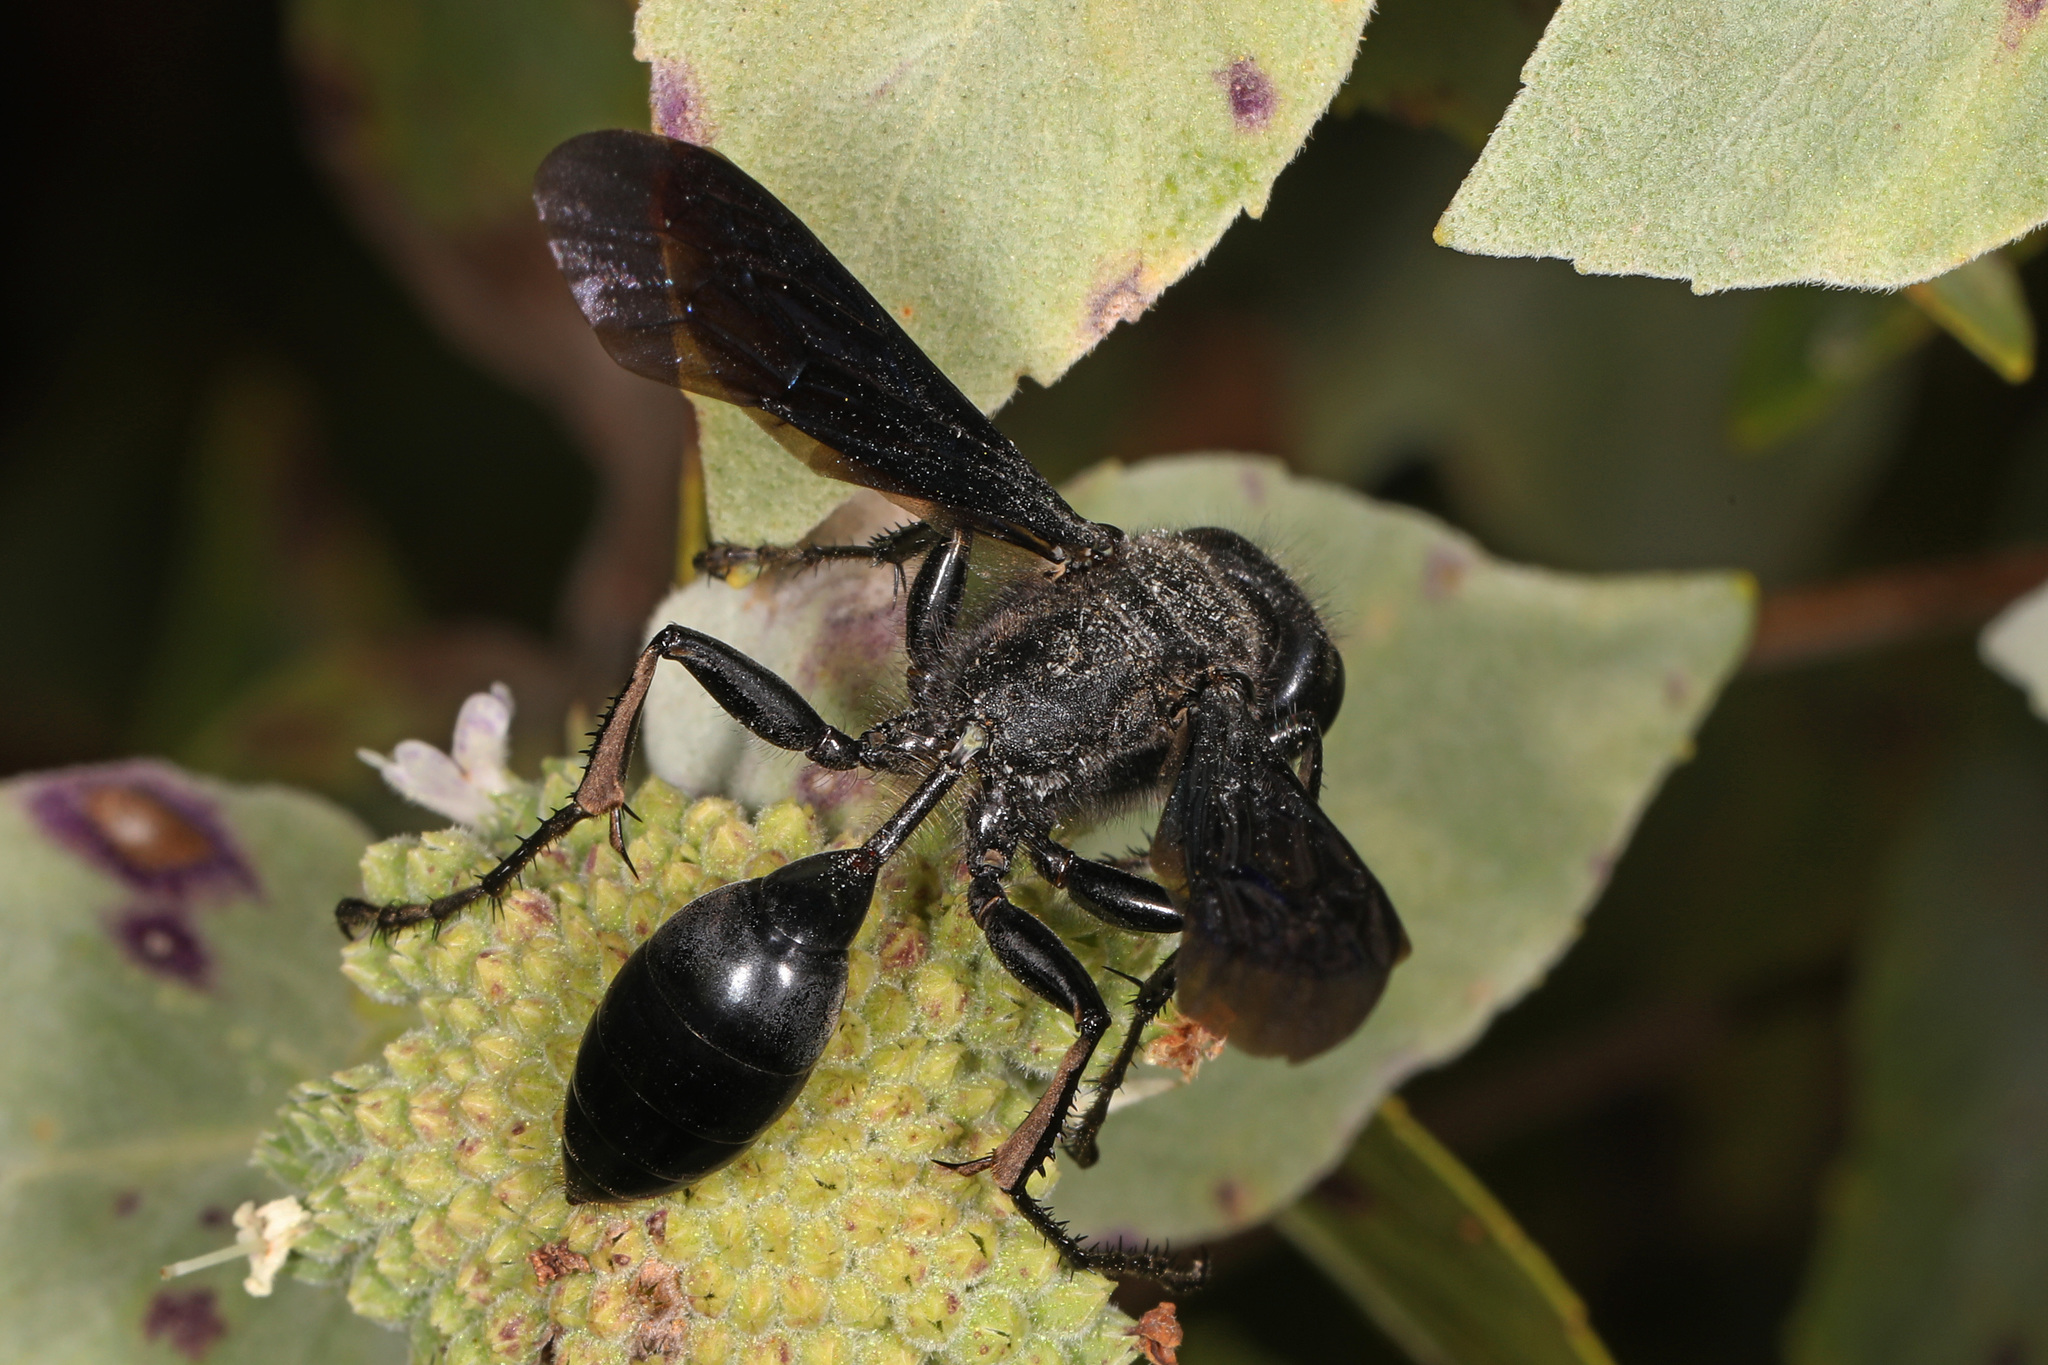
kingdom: Animalia
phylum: Arthropoda
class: Insecta
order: Hymenoptera
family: Sphecidae
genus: Isodontia
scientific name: Isodontia philadelphica
